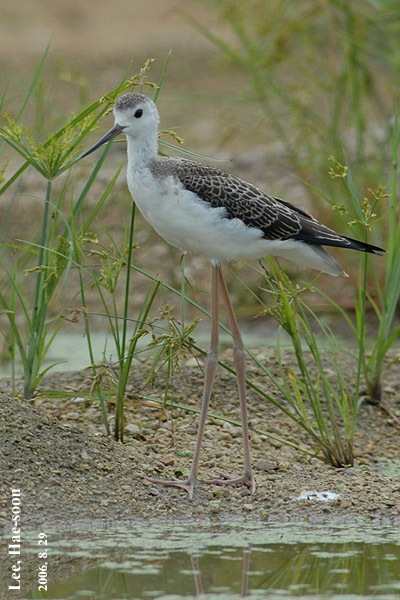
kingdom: Animalia
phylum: Chordata
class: Aves
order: Charadriiformes
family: Recurvirostridae
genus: Himantopus
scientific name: Himantopus himantopus
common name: Black-winged stilt
